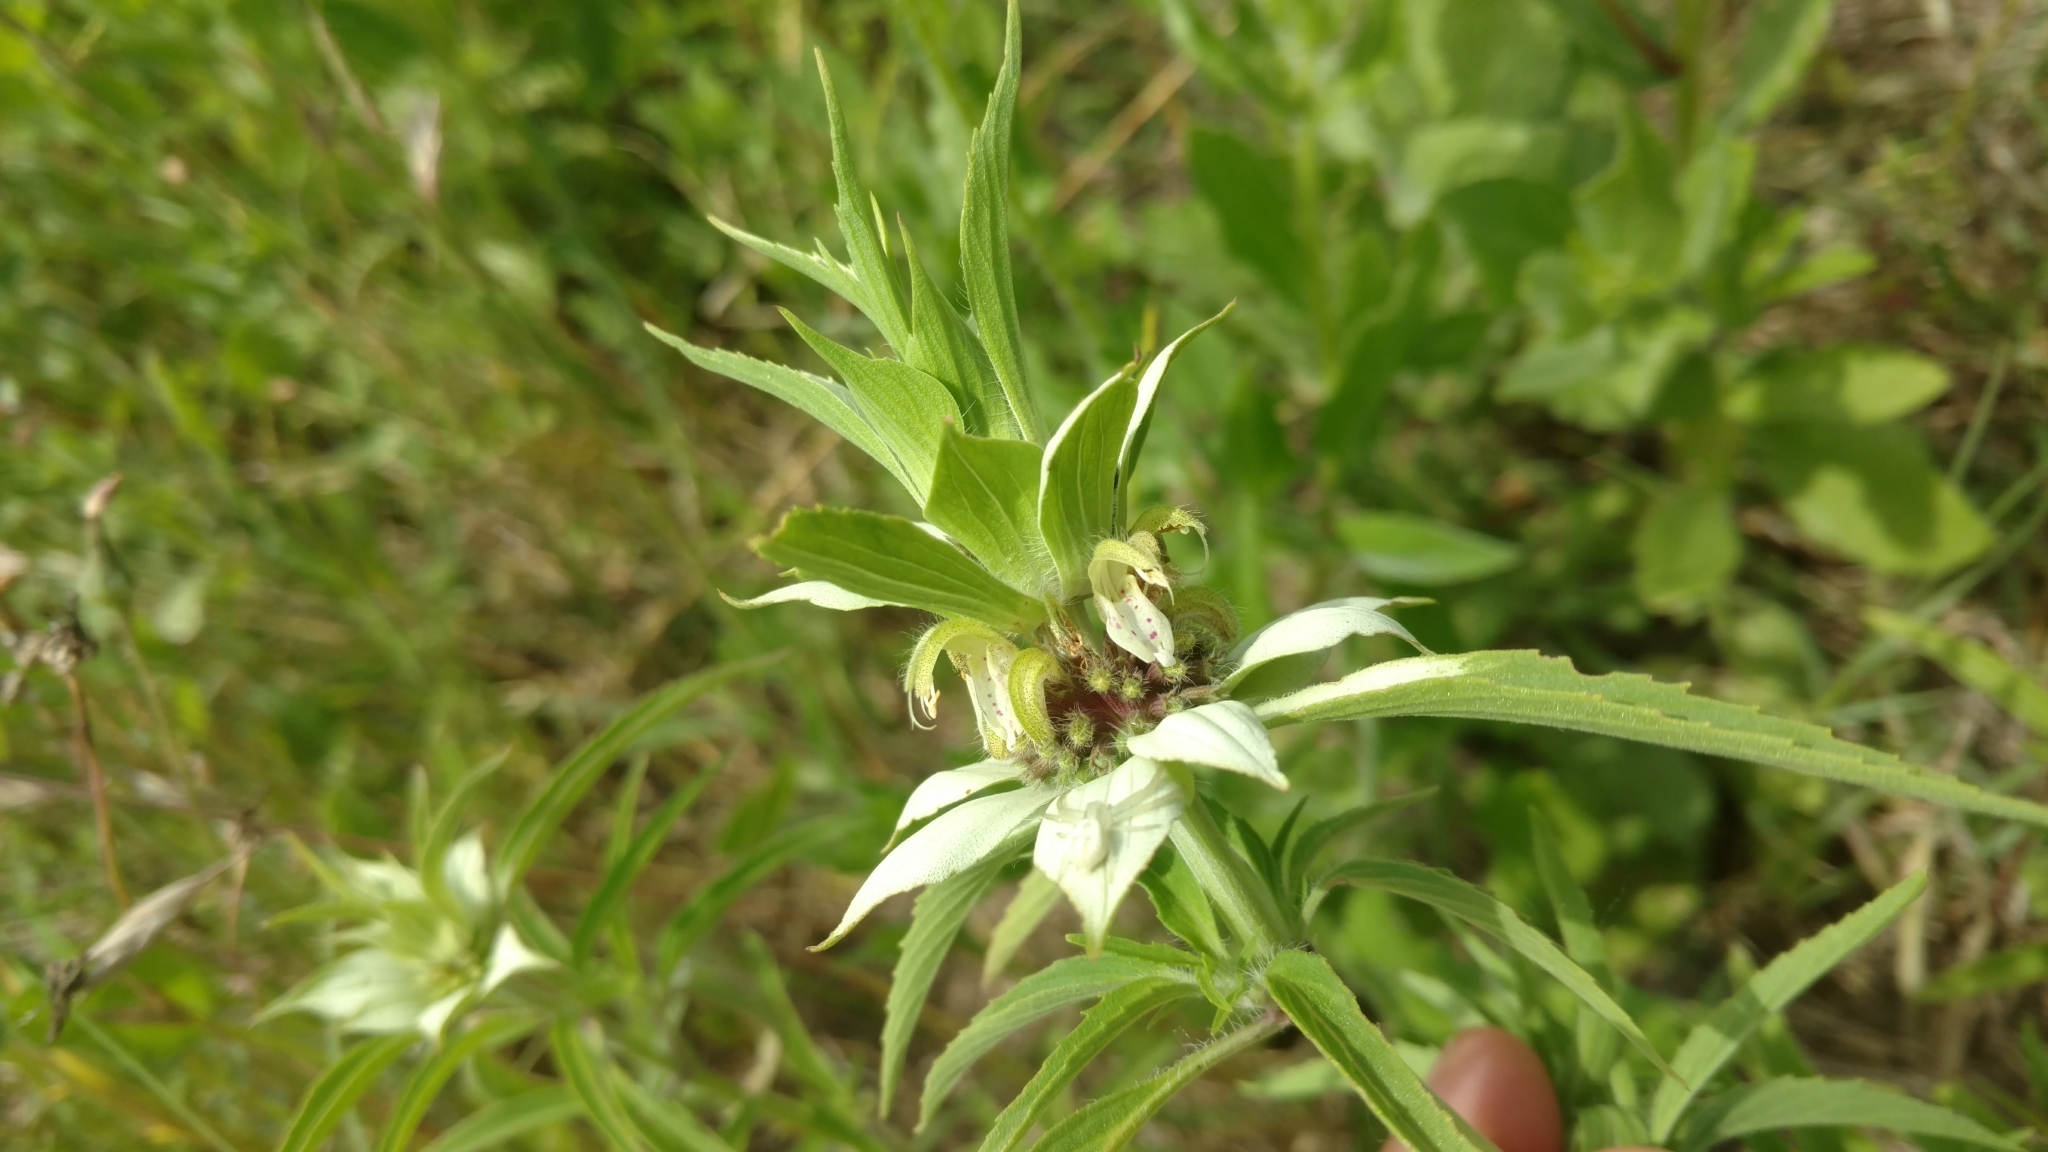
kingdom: Plantae
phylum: Tracheophyta
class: Magnoliopsida
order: Lamiales
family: Lamiaceae
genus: Monarda
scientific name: Monarda punctata
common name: Dotted monarda
